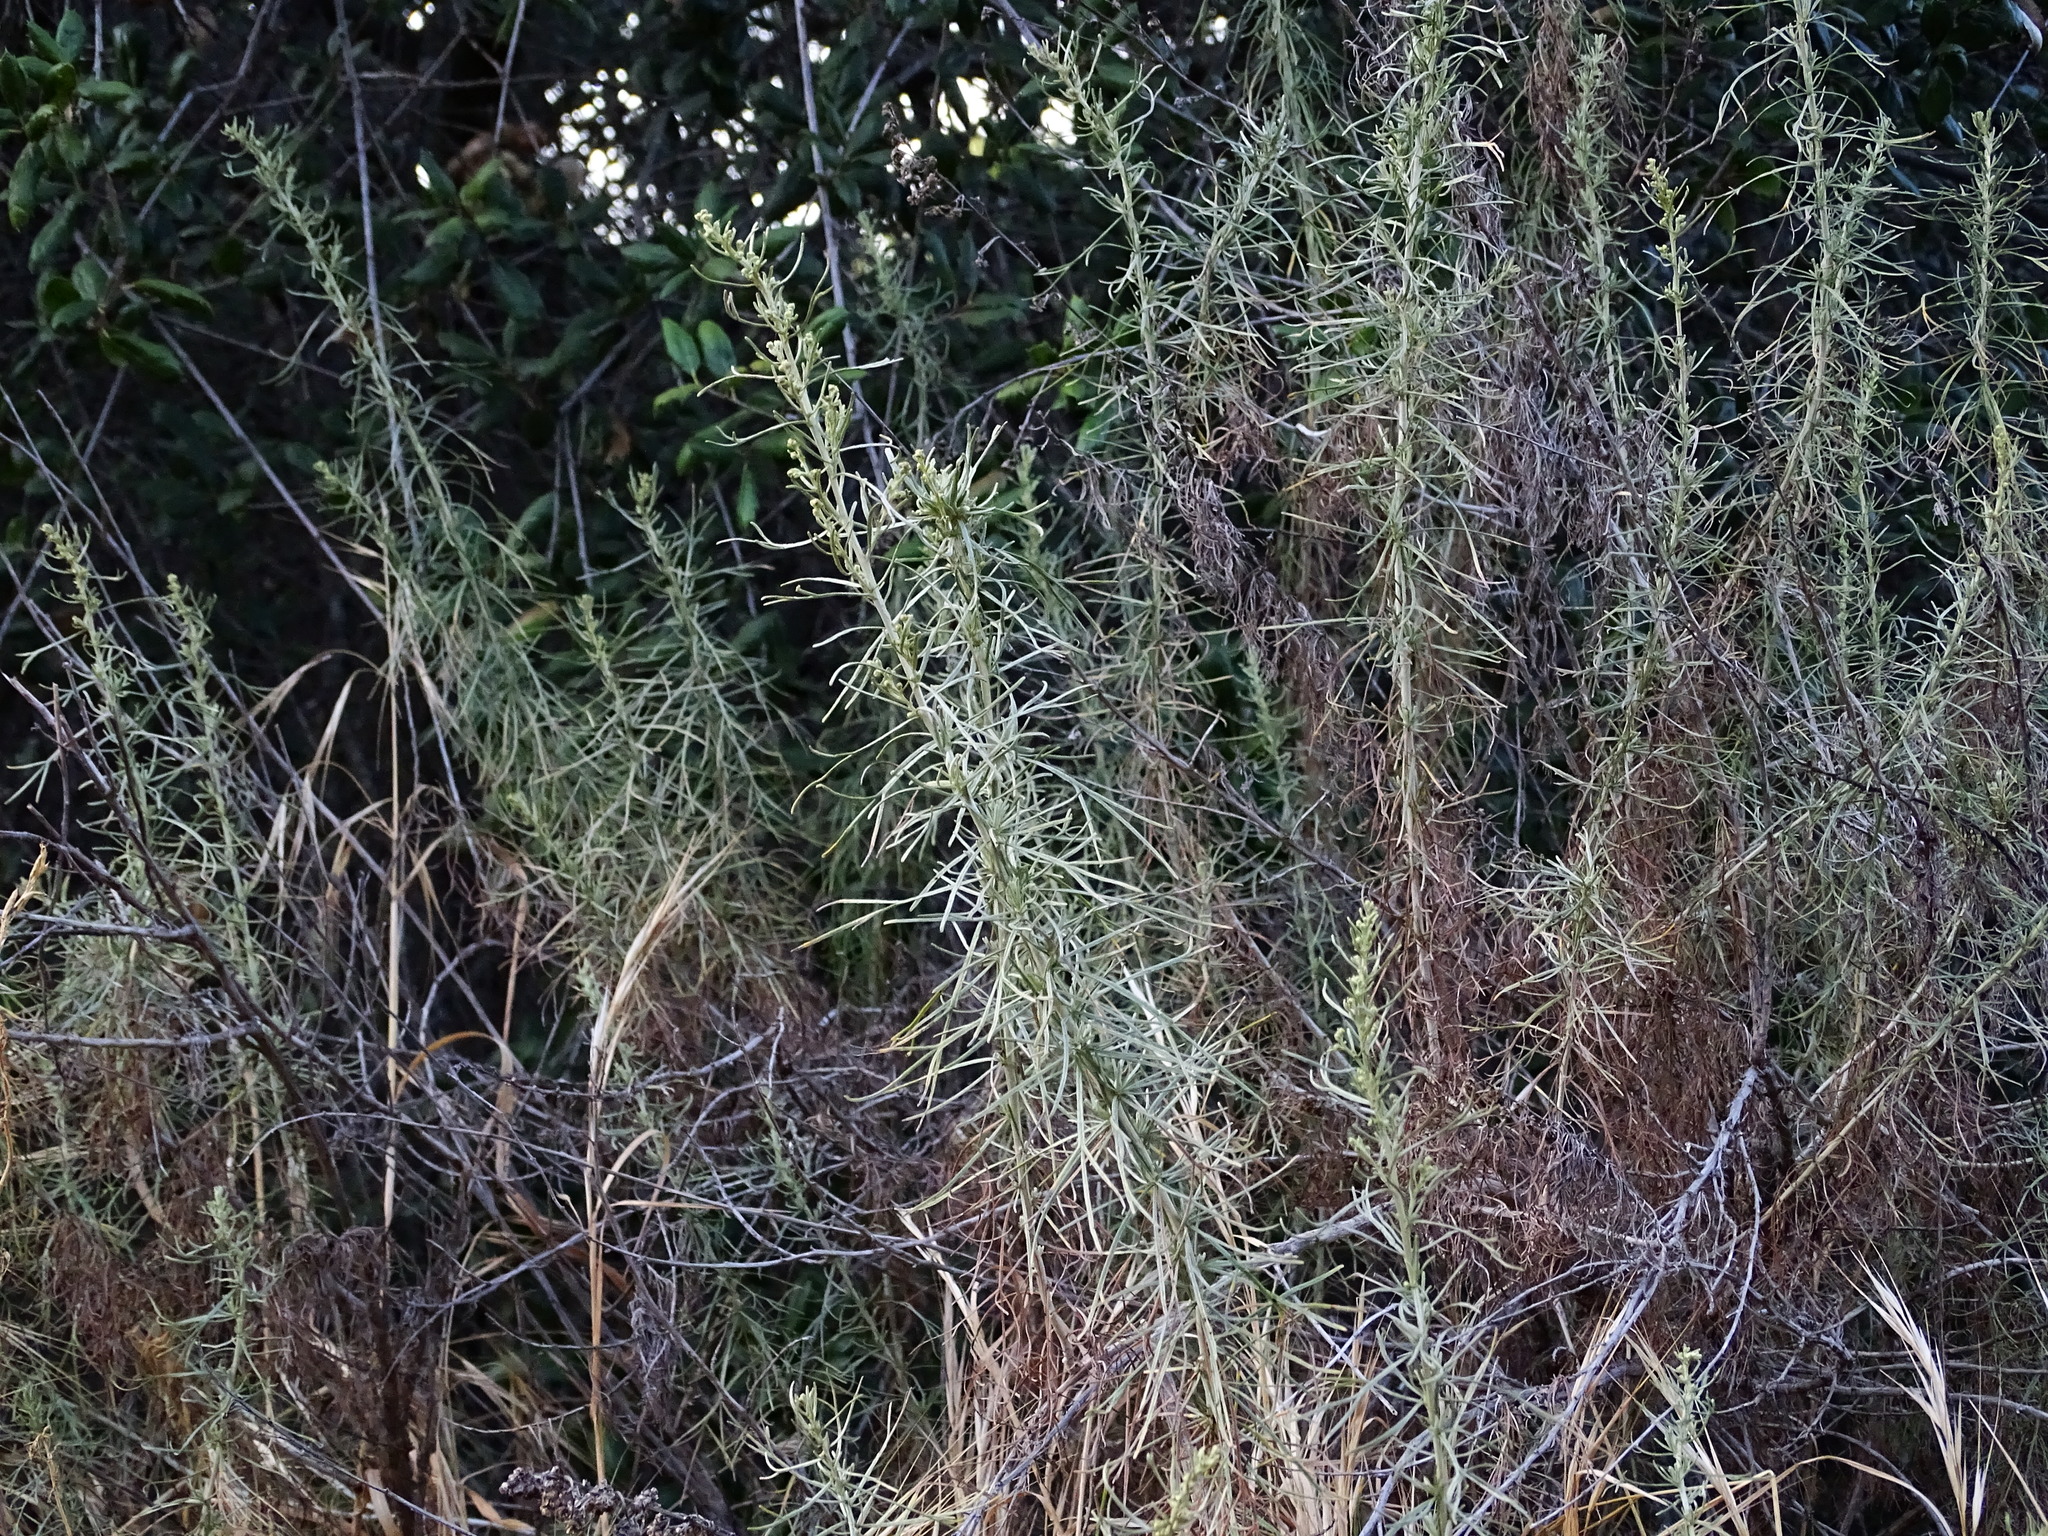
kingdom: Plantae
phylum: Tracheophyta
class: Magnoliopsida
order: Asterales
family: Asteraceae
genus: Artemisia
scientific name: Artemisia californica
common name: California sagebrush
